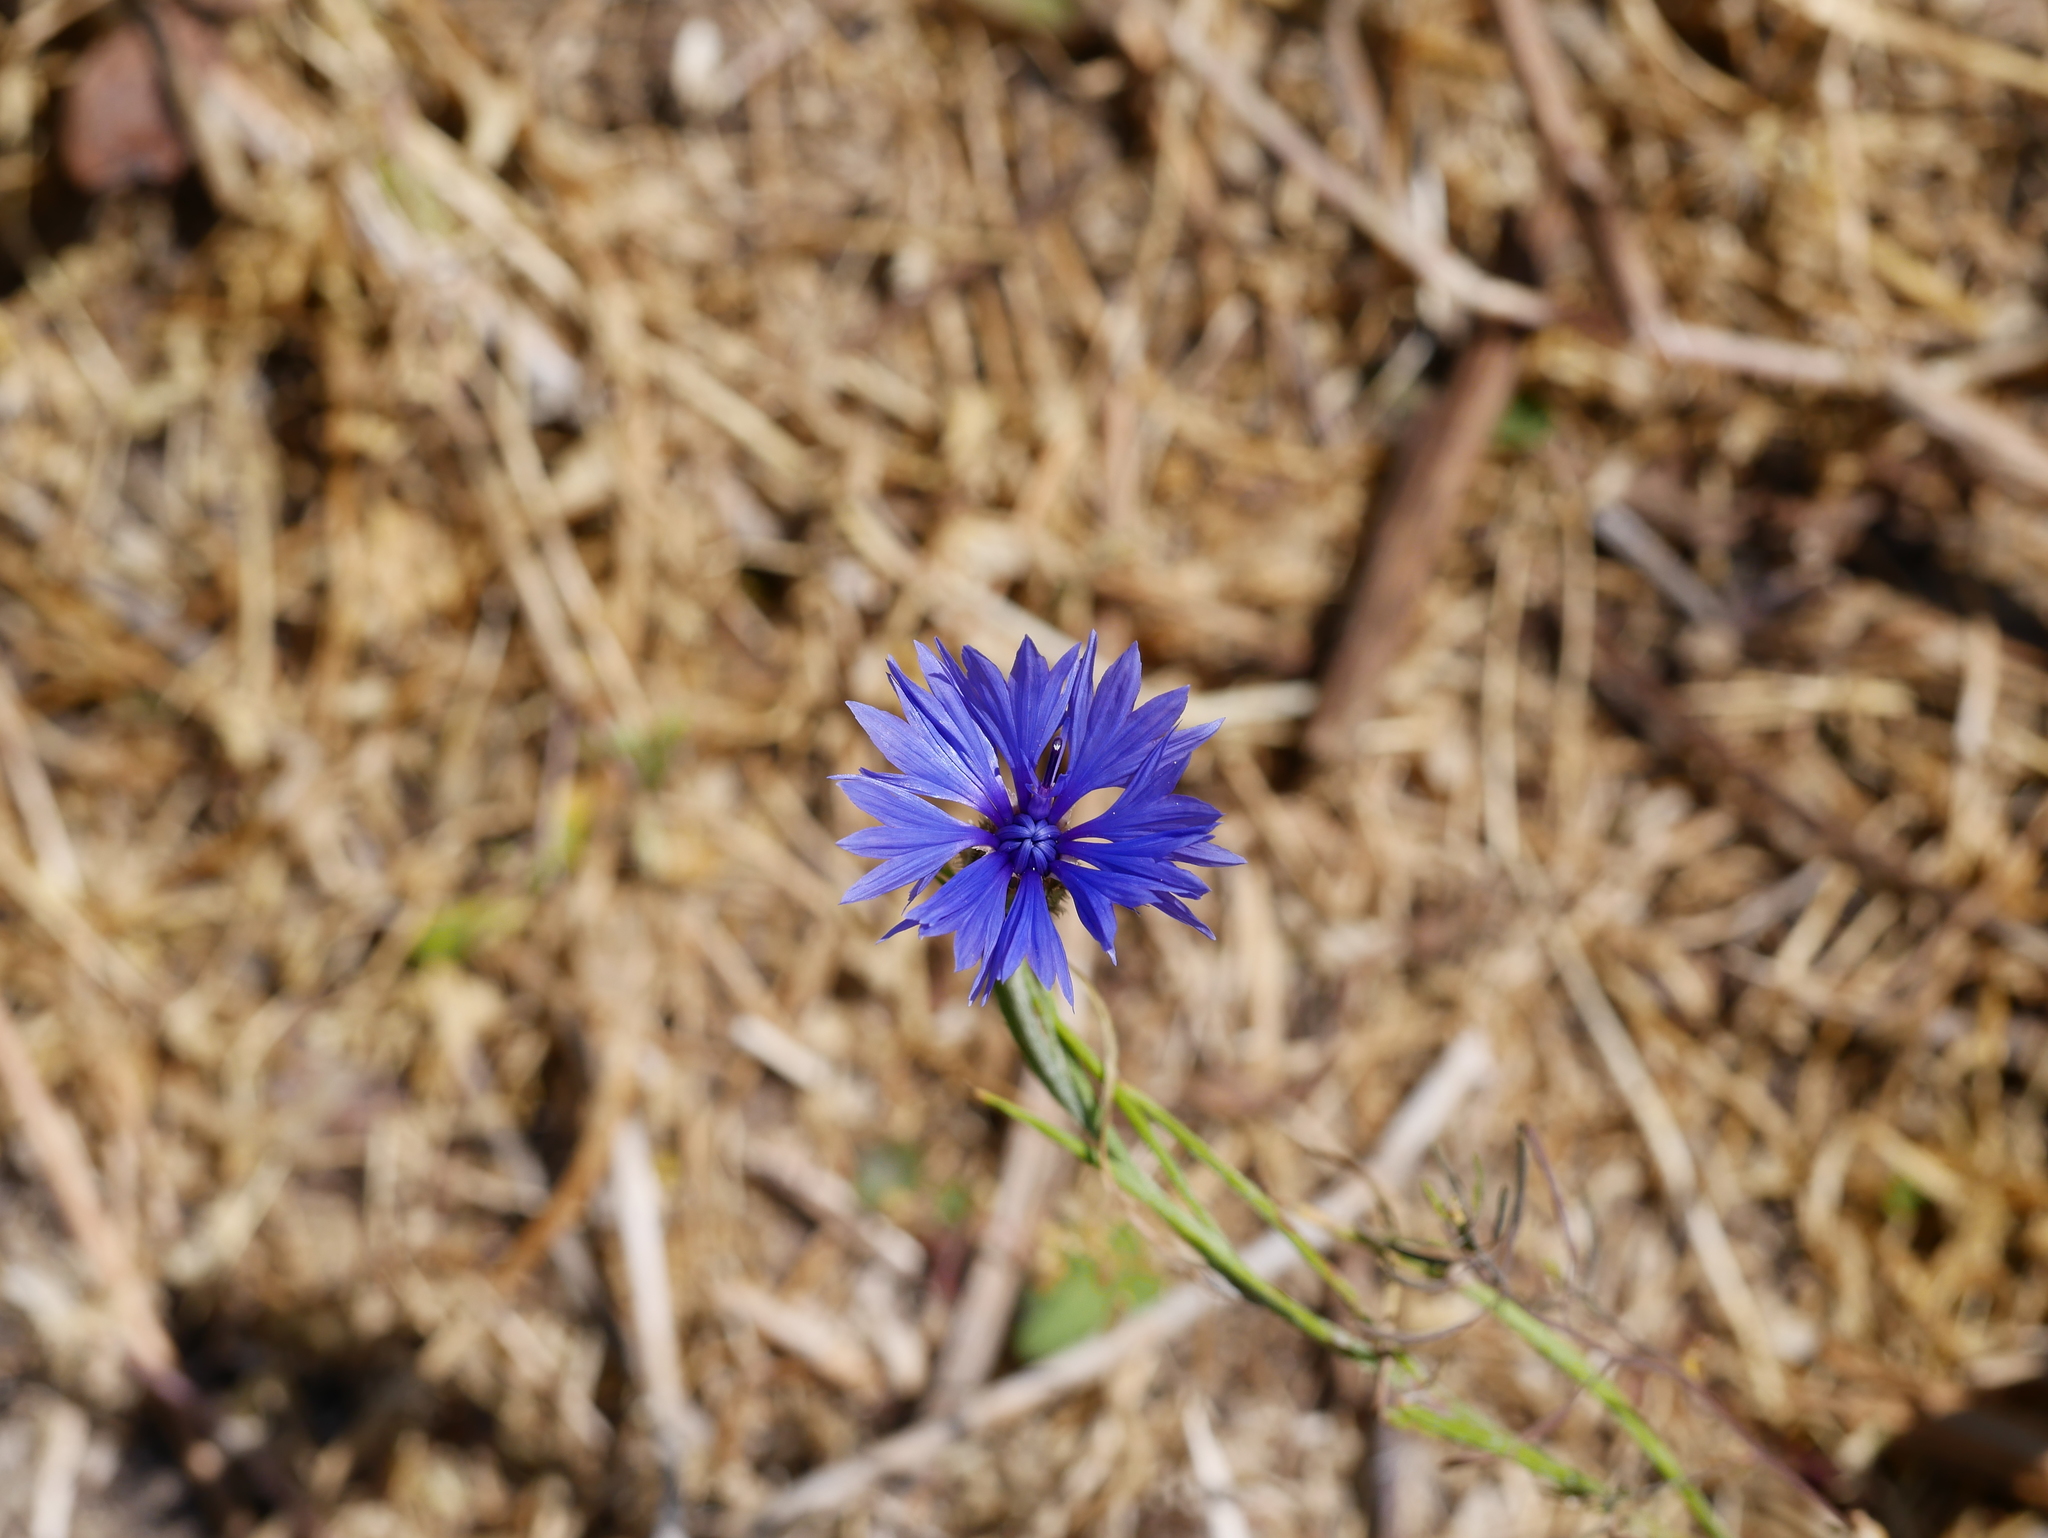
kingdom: Plantae
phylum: Tracheophyta
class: Magnoliopsida
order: Asterales
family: Asteraceae
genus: Centaurea
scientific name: Centaurea cyanus
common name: Cornflower
